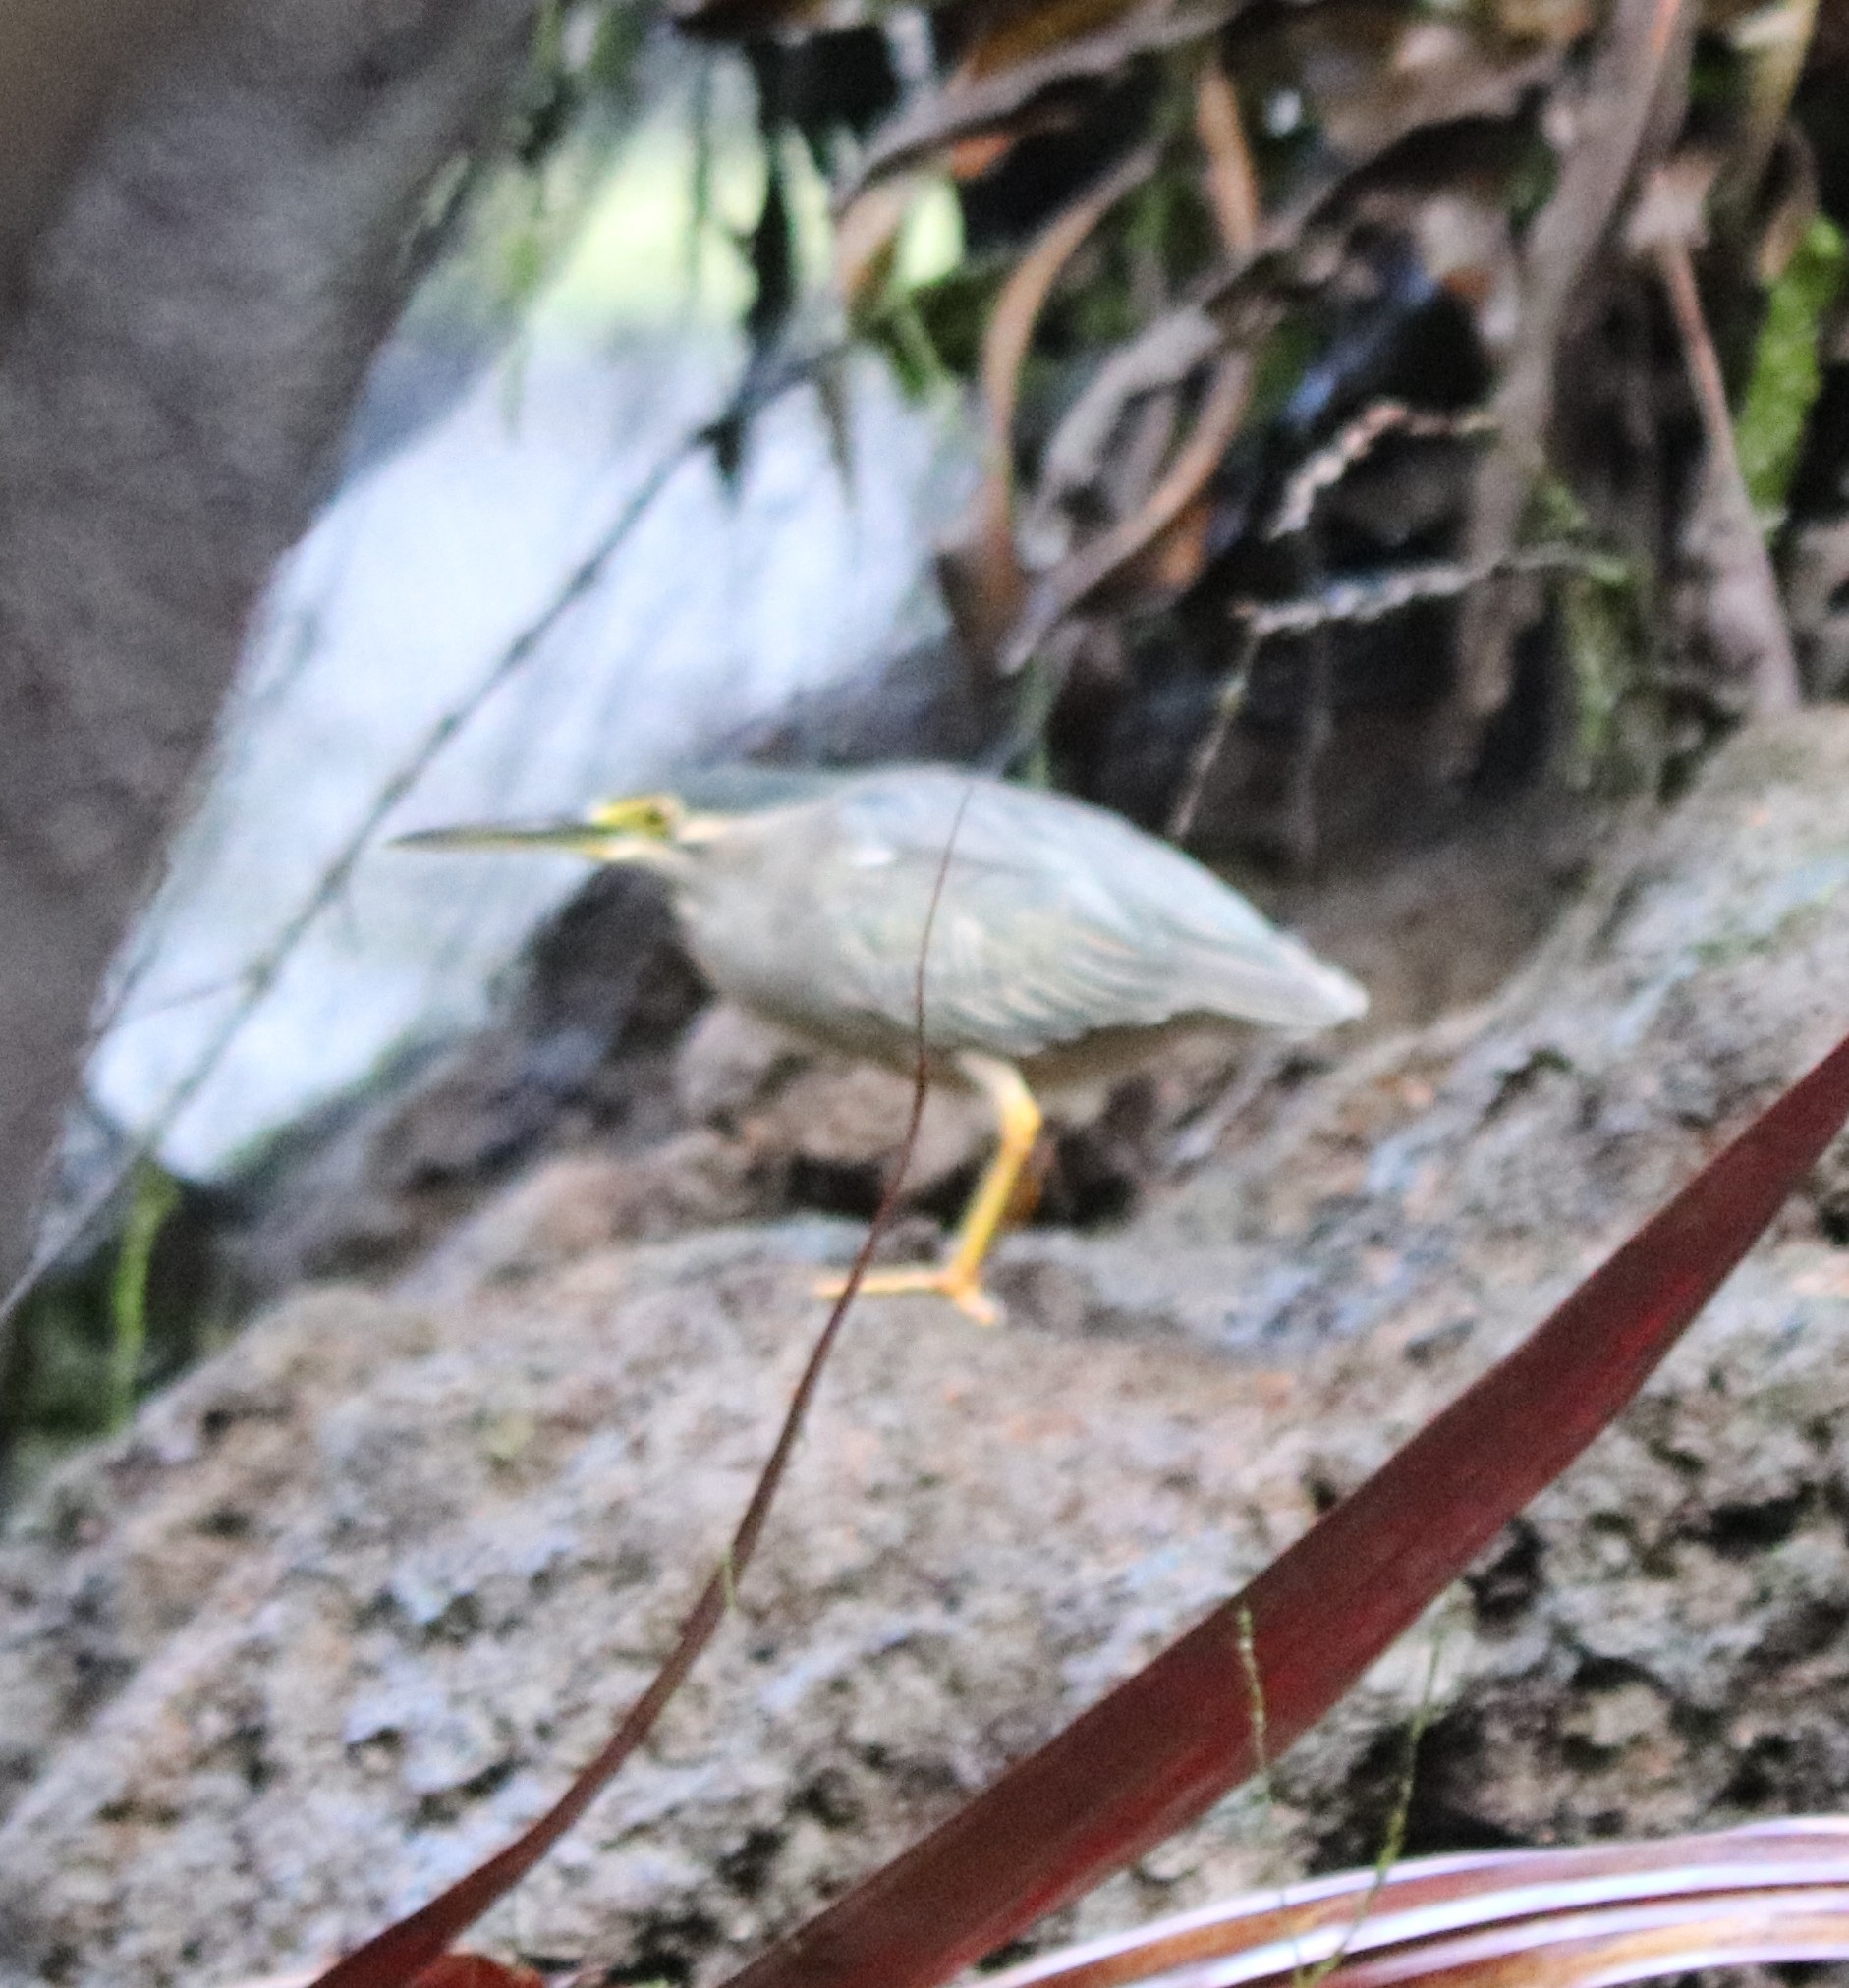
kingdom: Animalia
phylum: Chordata
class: Aves
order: Pelecaniformes
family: Ardeidae
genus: Butorides
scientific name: Butorides striata
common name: Striated heron
